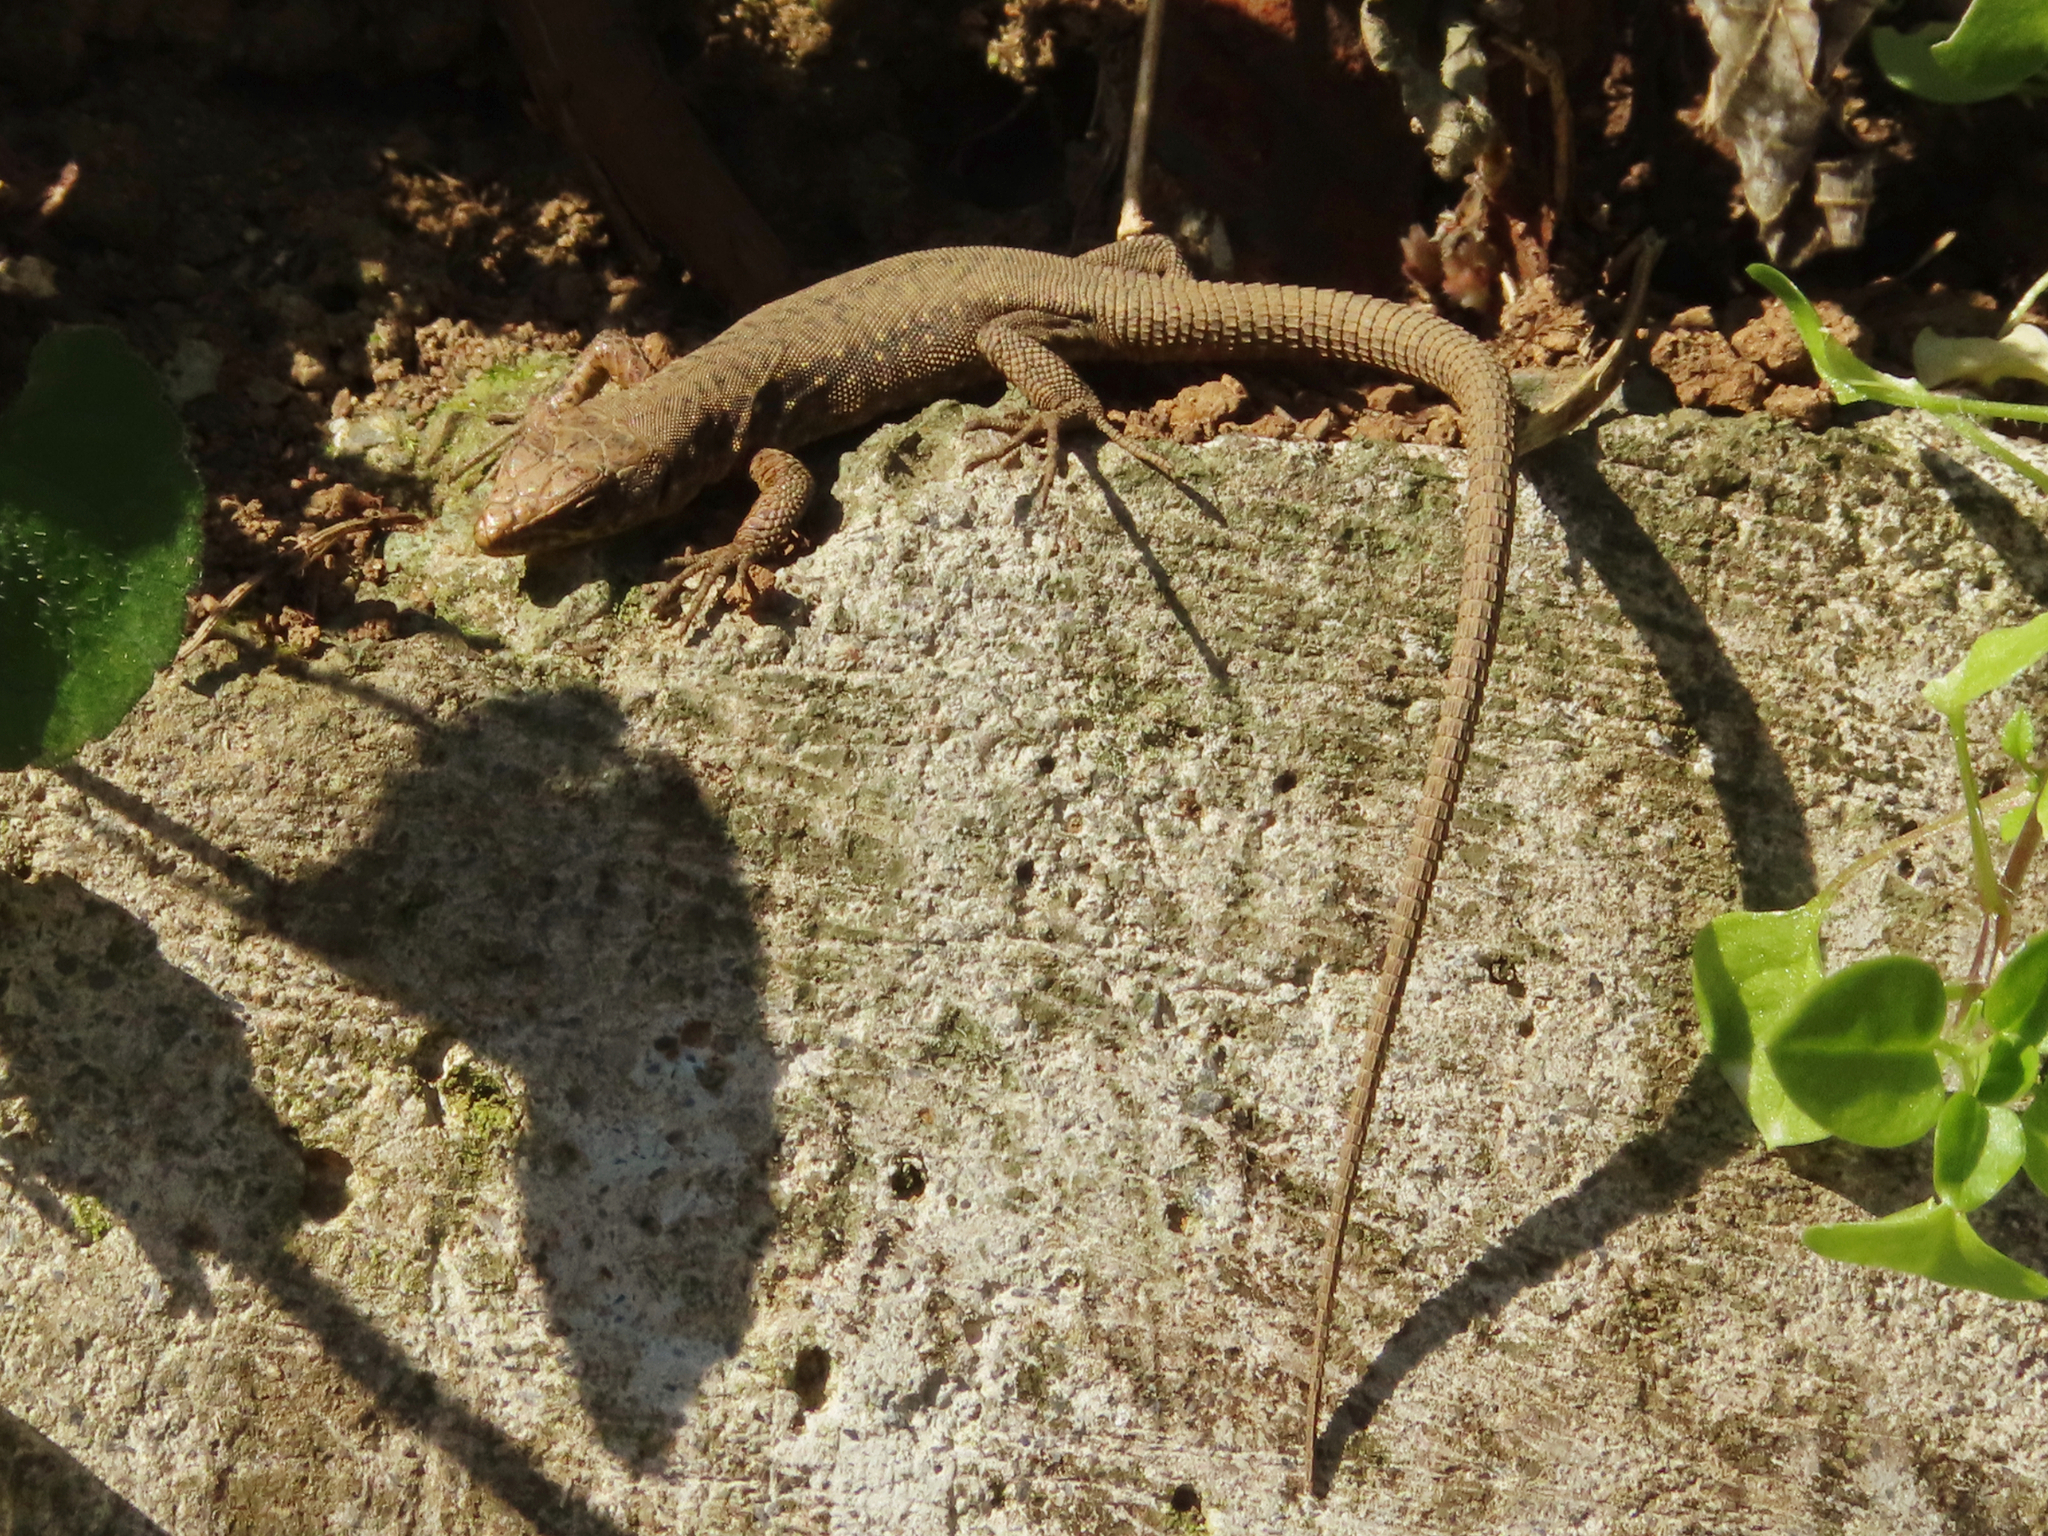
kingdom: Animalia
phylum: Chordata
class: Squamata
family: Lacertidae
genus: Darevskia
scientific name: Darevskia rudis
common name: Spiny-tailed lizard
